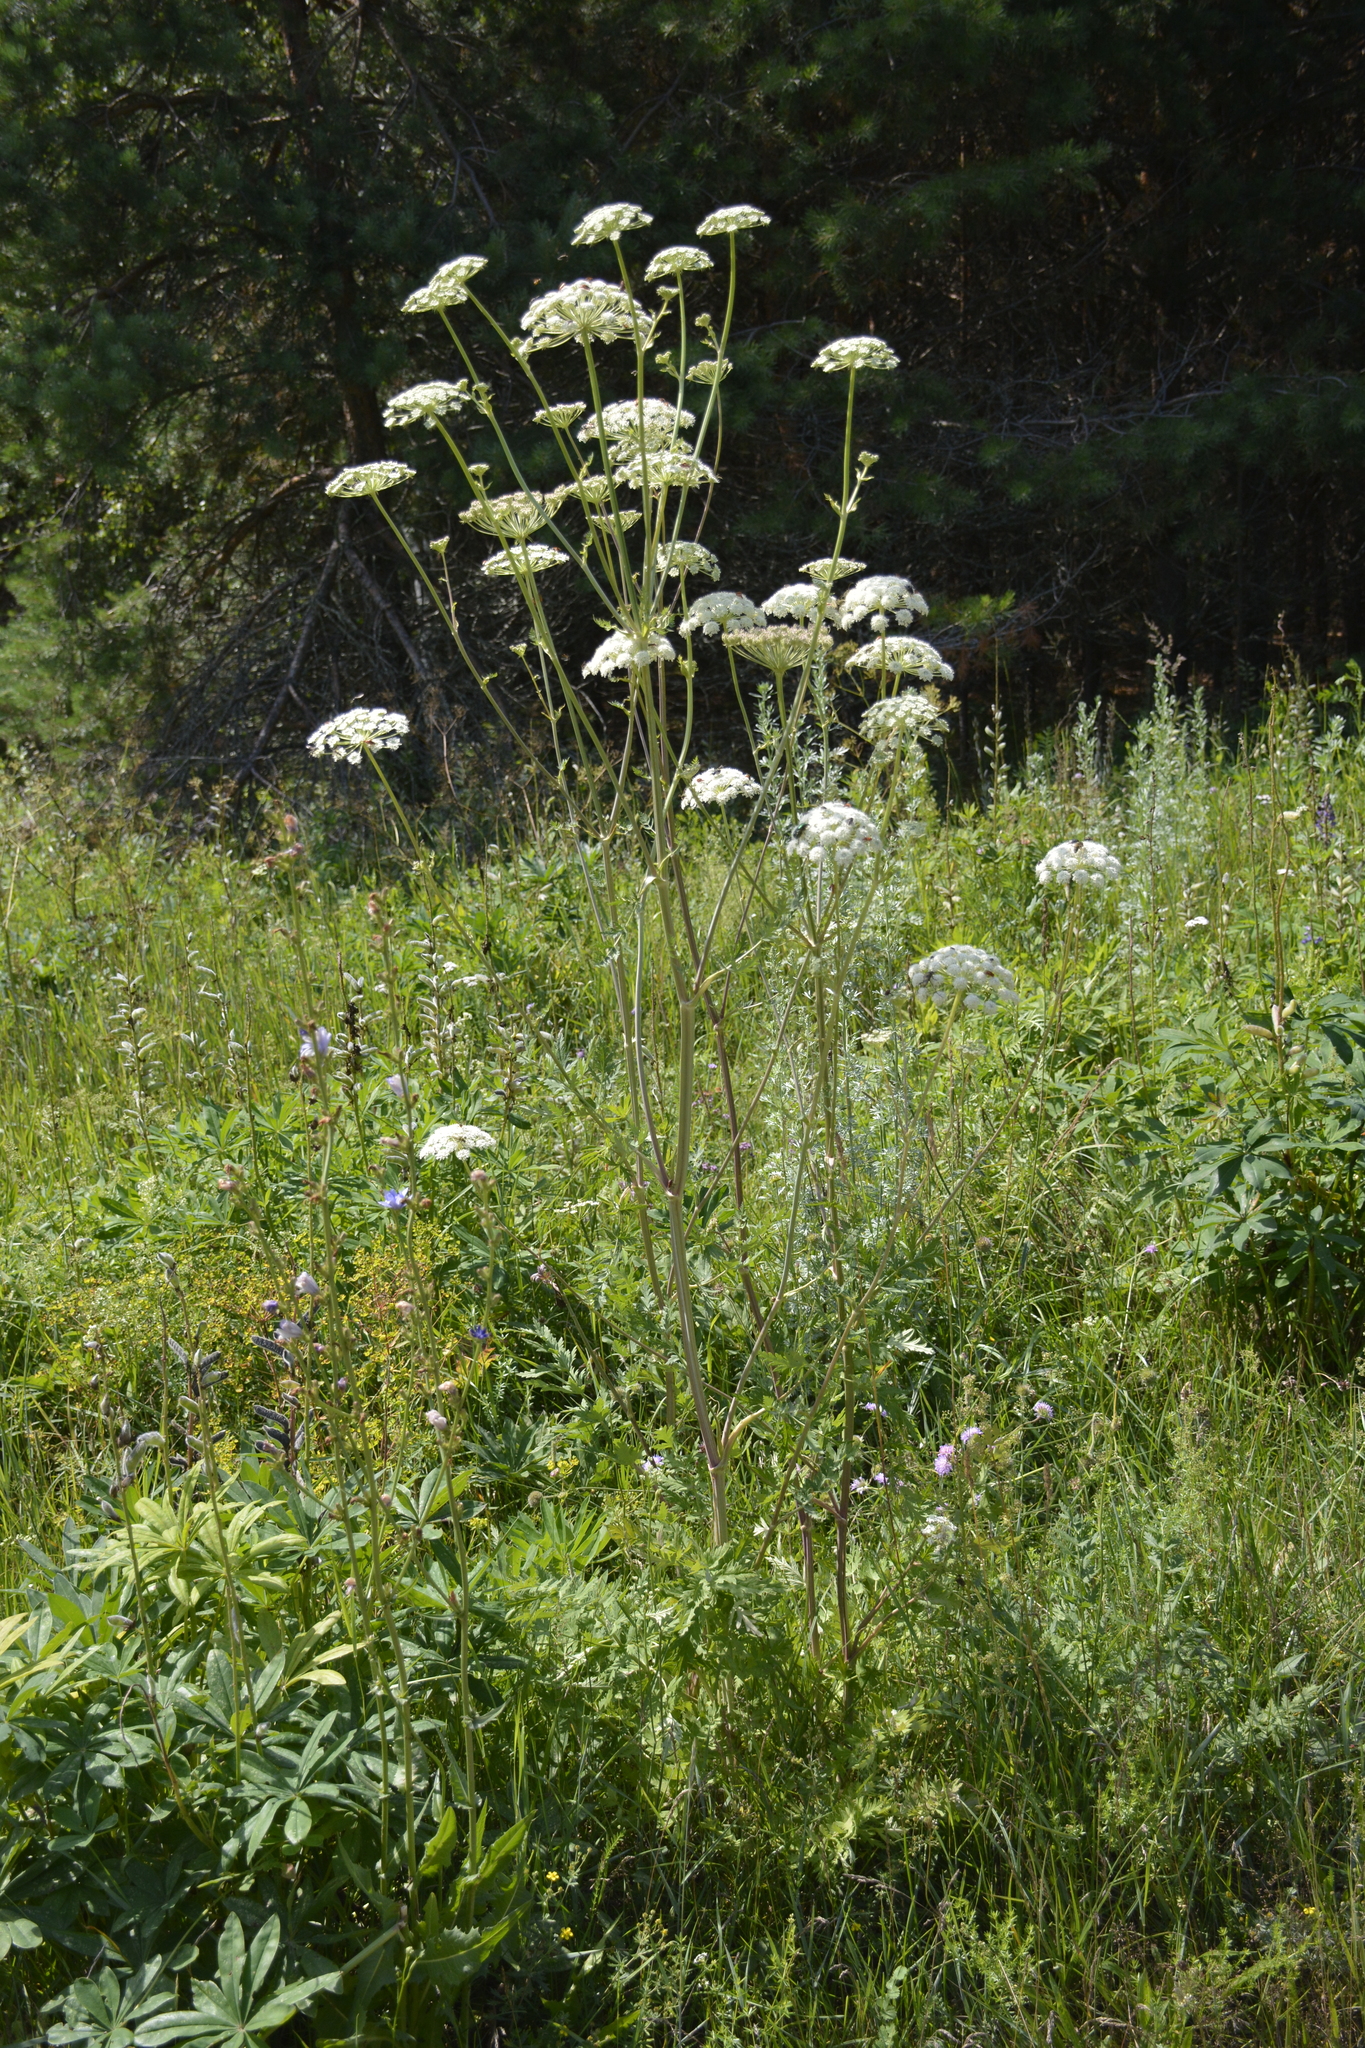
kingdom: Plantae
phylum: Tracheophyta
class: Magnoliopsida
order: Apiales
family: Apiaceae
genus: Seseli
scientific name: Seseli libanotis
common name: Mooncarrot
